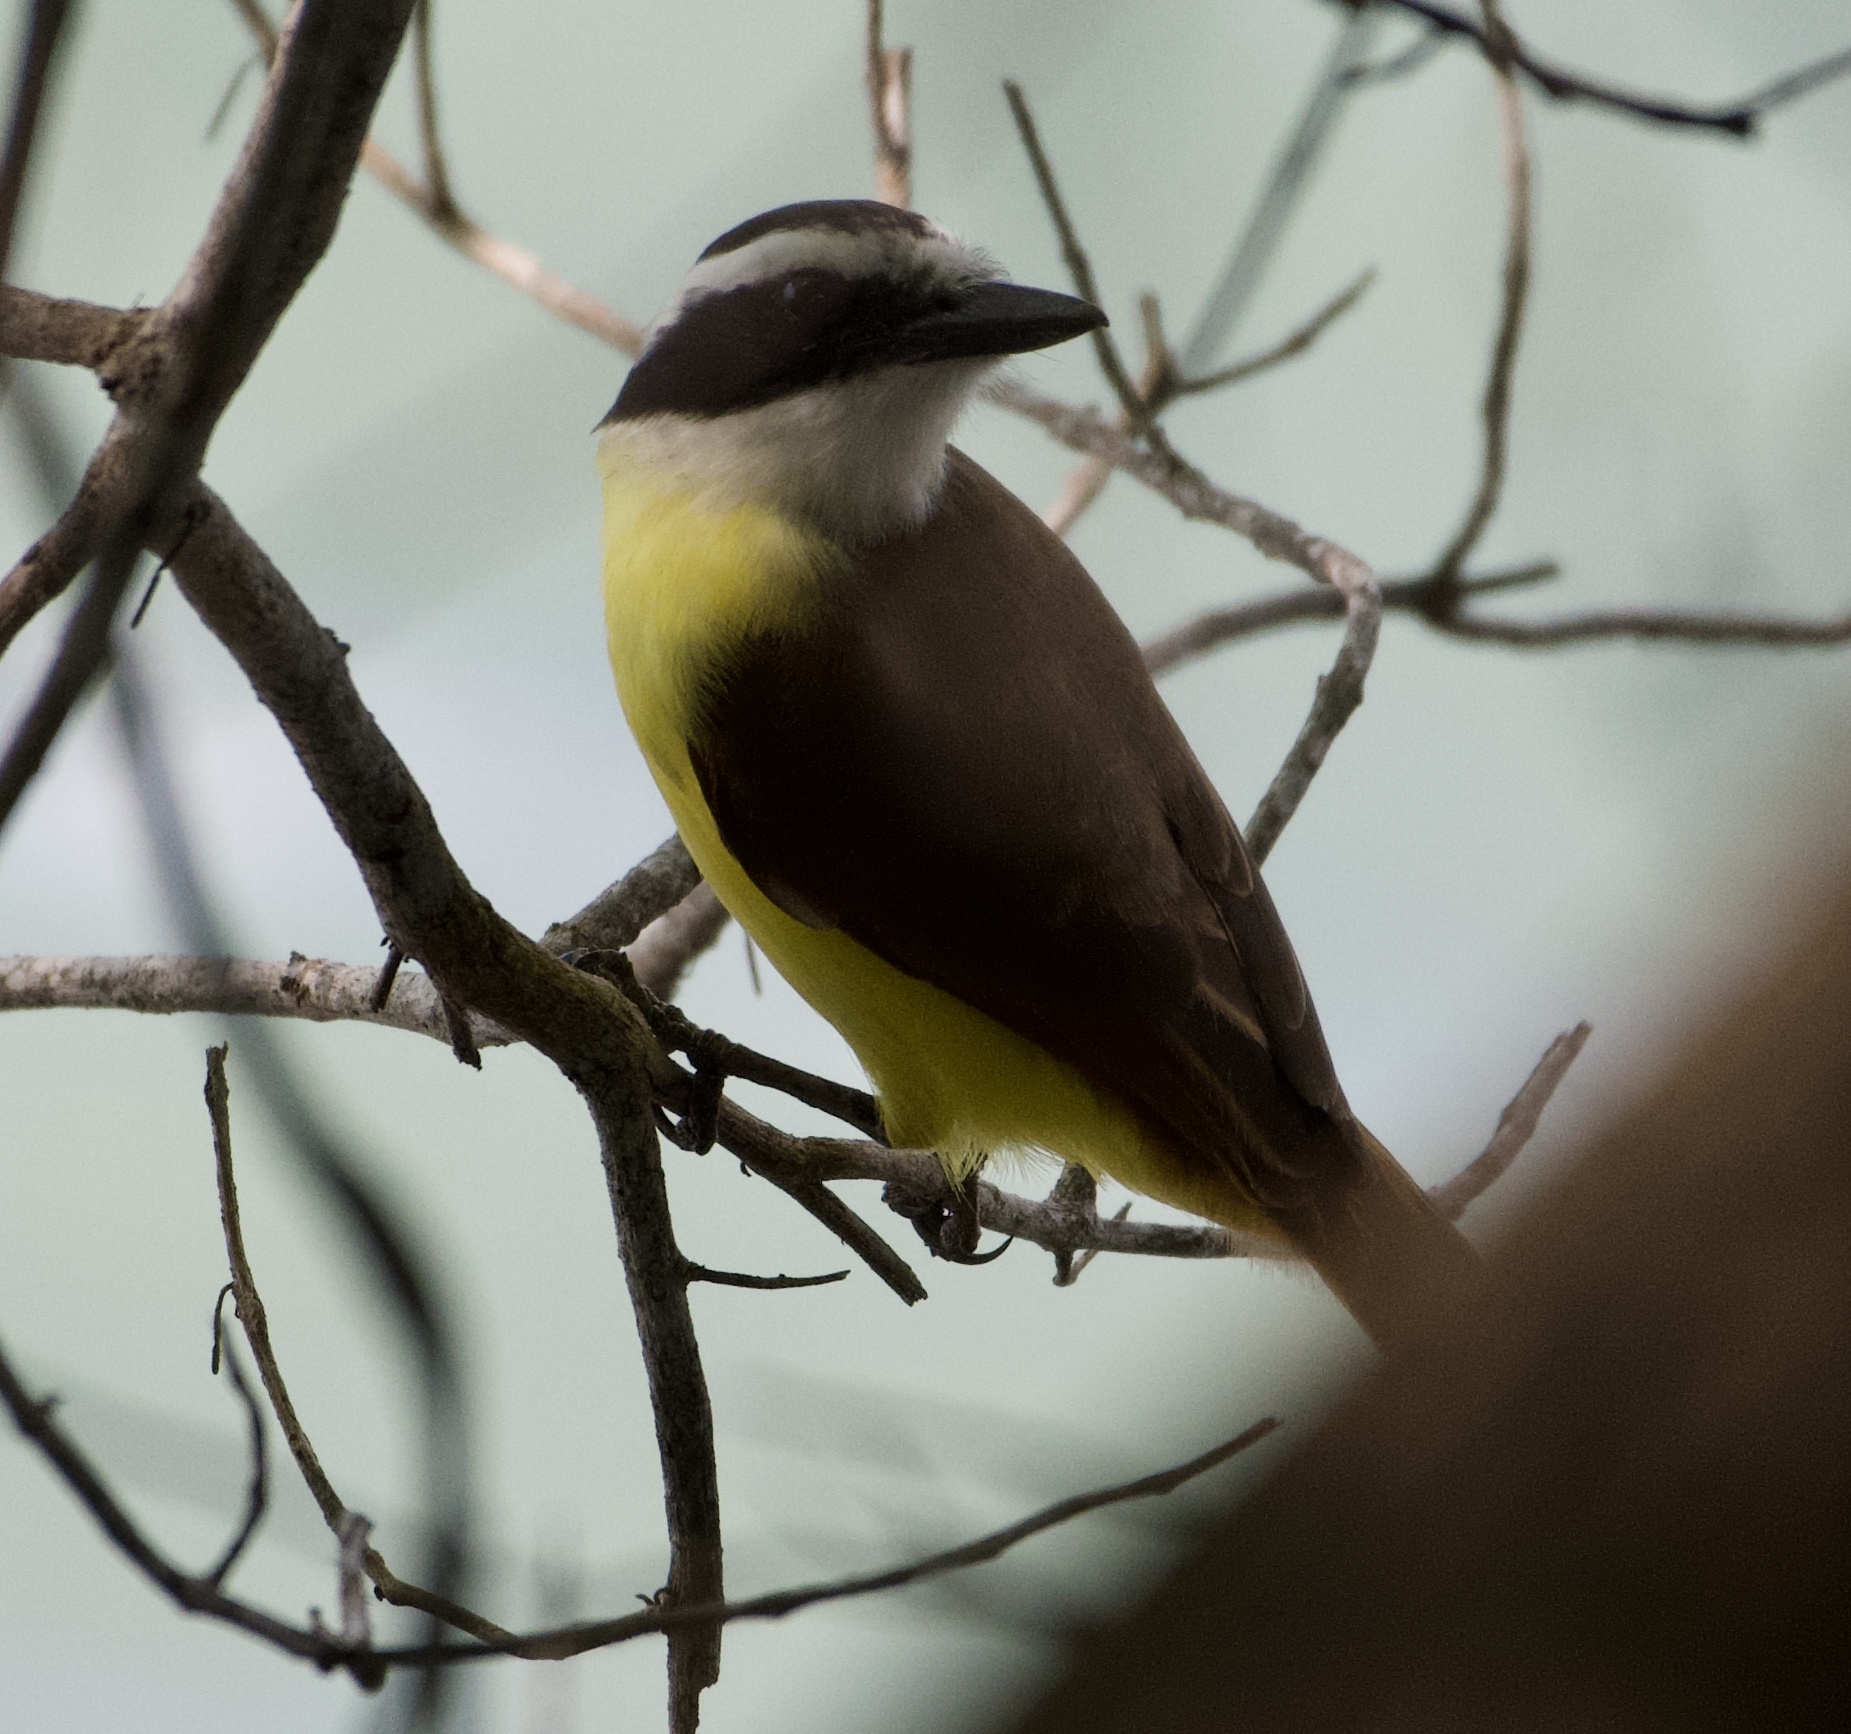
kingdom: Animalia
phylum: Chordata
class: Aves
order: Passeriformes
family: Tyrannidae
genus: Pitangus
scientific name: Pitangus sulphuratus
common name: Great kiskadee
